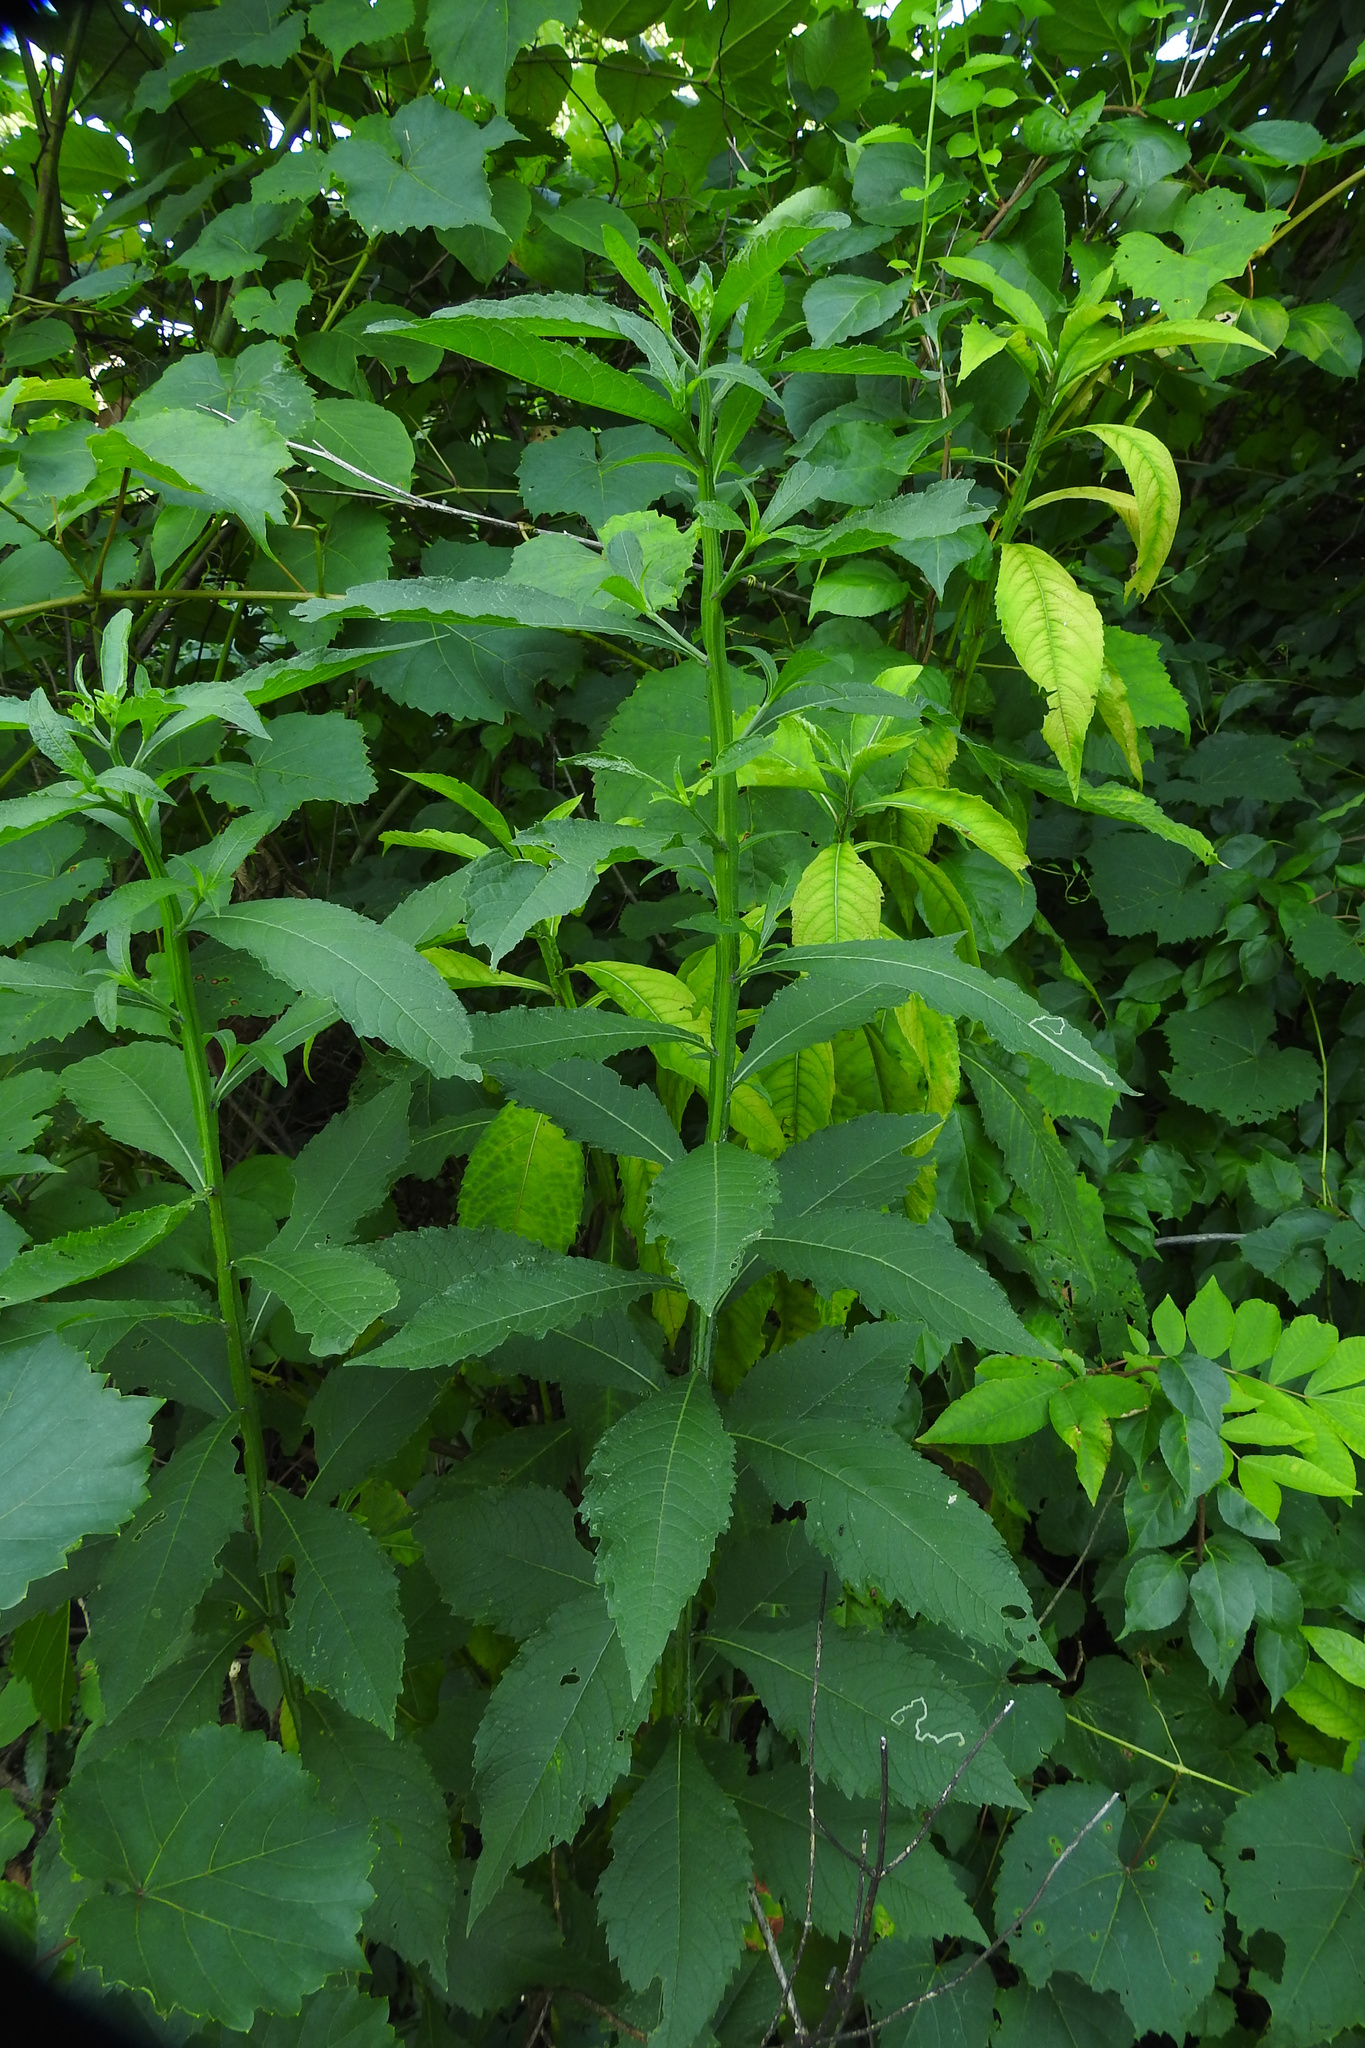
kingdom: Plantae
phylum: Tracheophyta
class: Magnoliopsida
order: Asterales
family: Asteraceae
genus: Verbesina
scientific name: Verbesina alternifolia
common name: Wingstem
